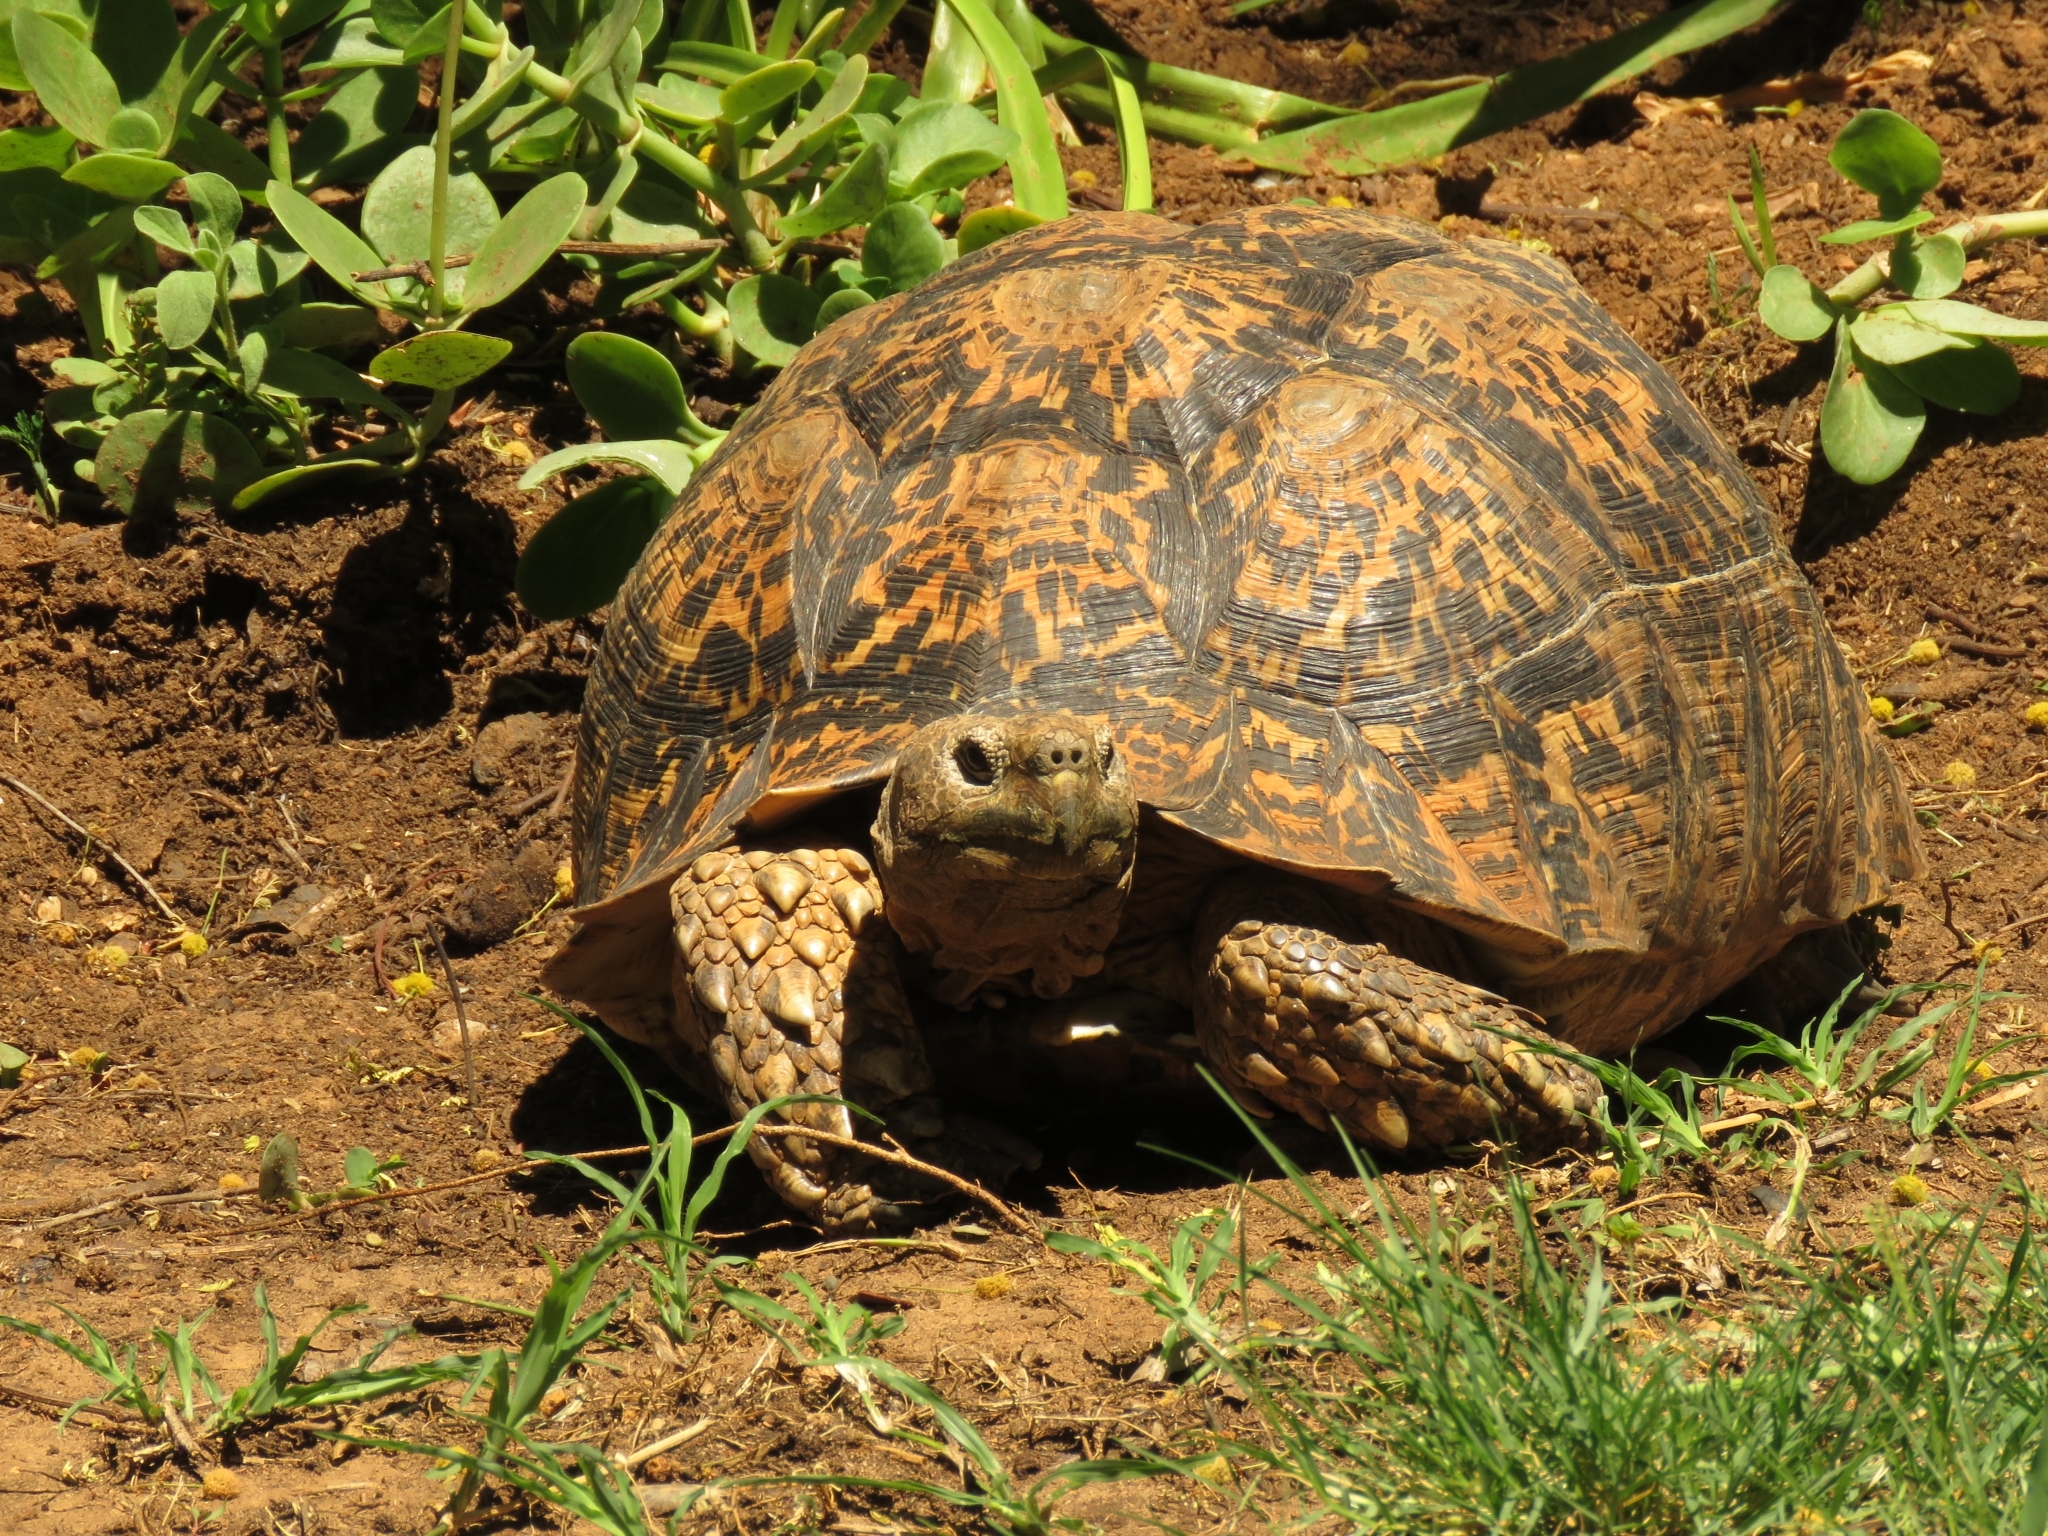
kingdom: Animalia
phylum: Chordata
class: Testudines
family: Testudinidae
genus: Stigmochelys
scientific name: Stigmochelys pardalis
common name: Leopard tortoise
